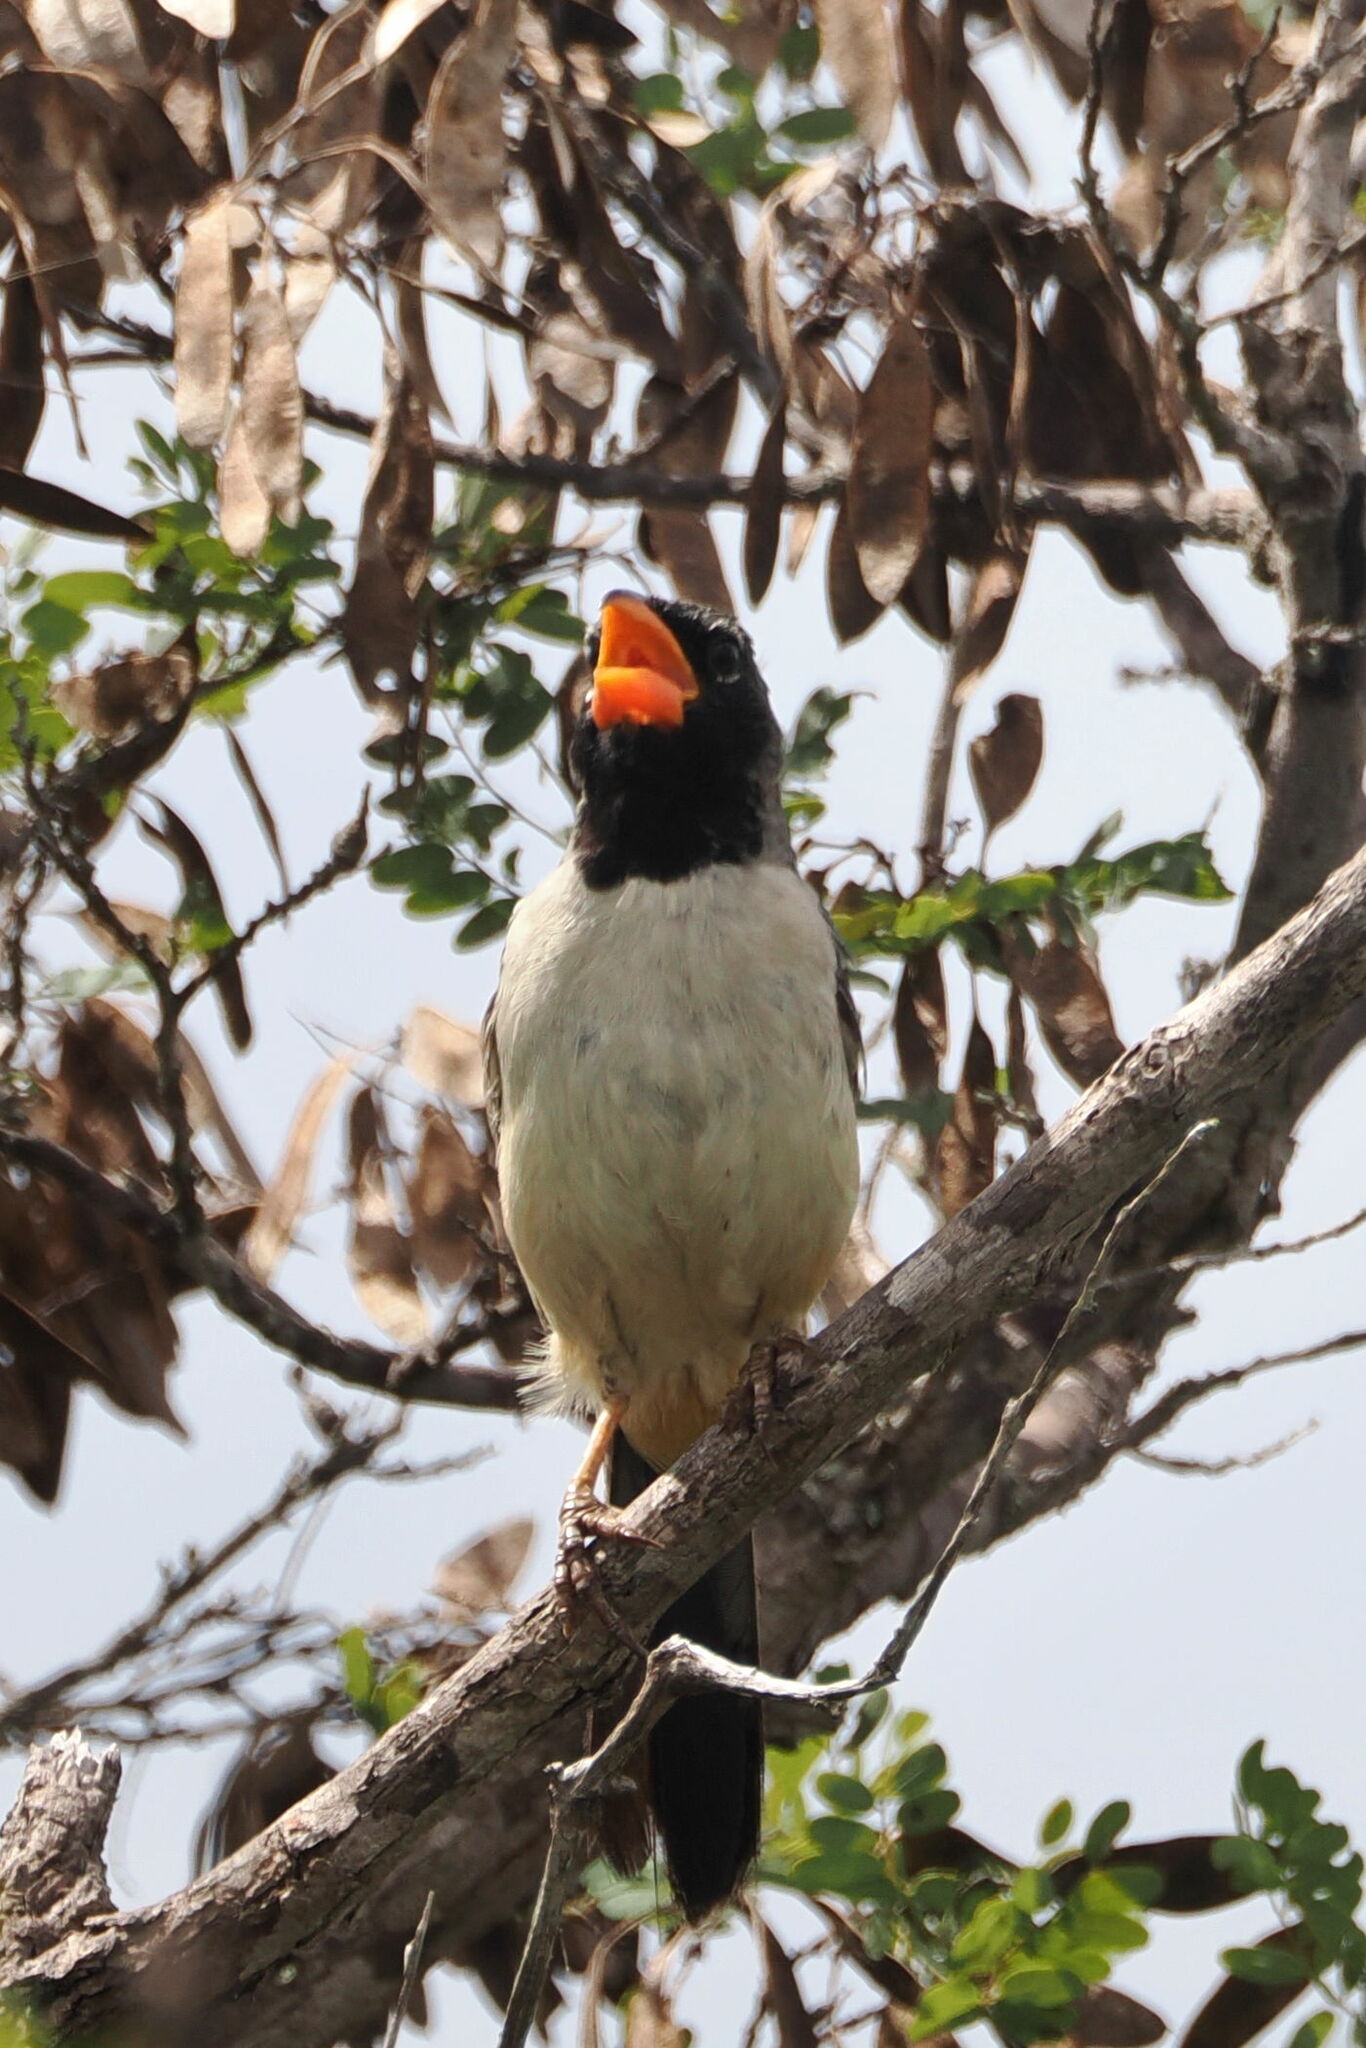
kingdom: Animalia
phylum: Chordata
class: Aves
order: Passeriformes
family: Thraupidae
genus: Saltatricula
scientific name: Saltatricula atricollis
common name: Black-throated saltator
